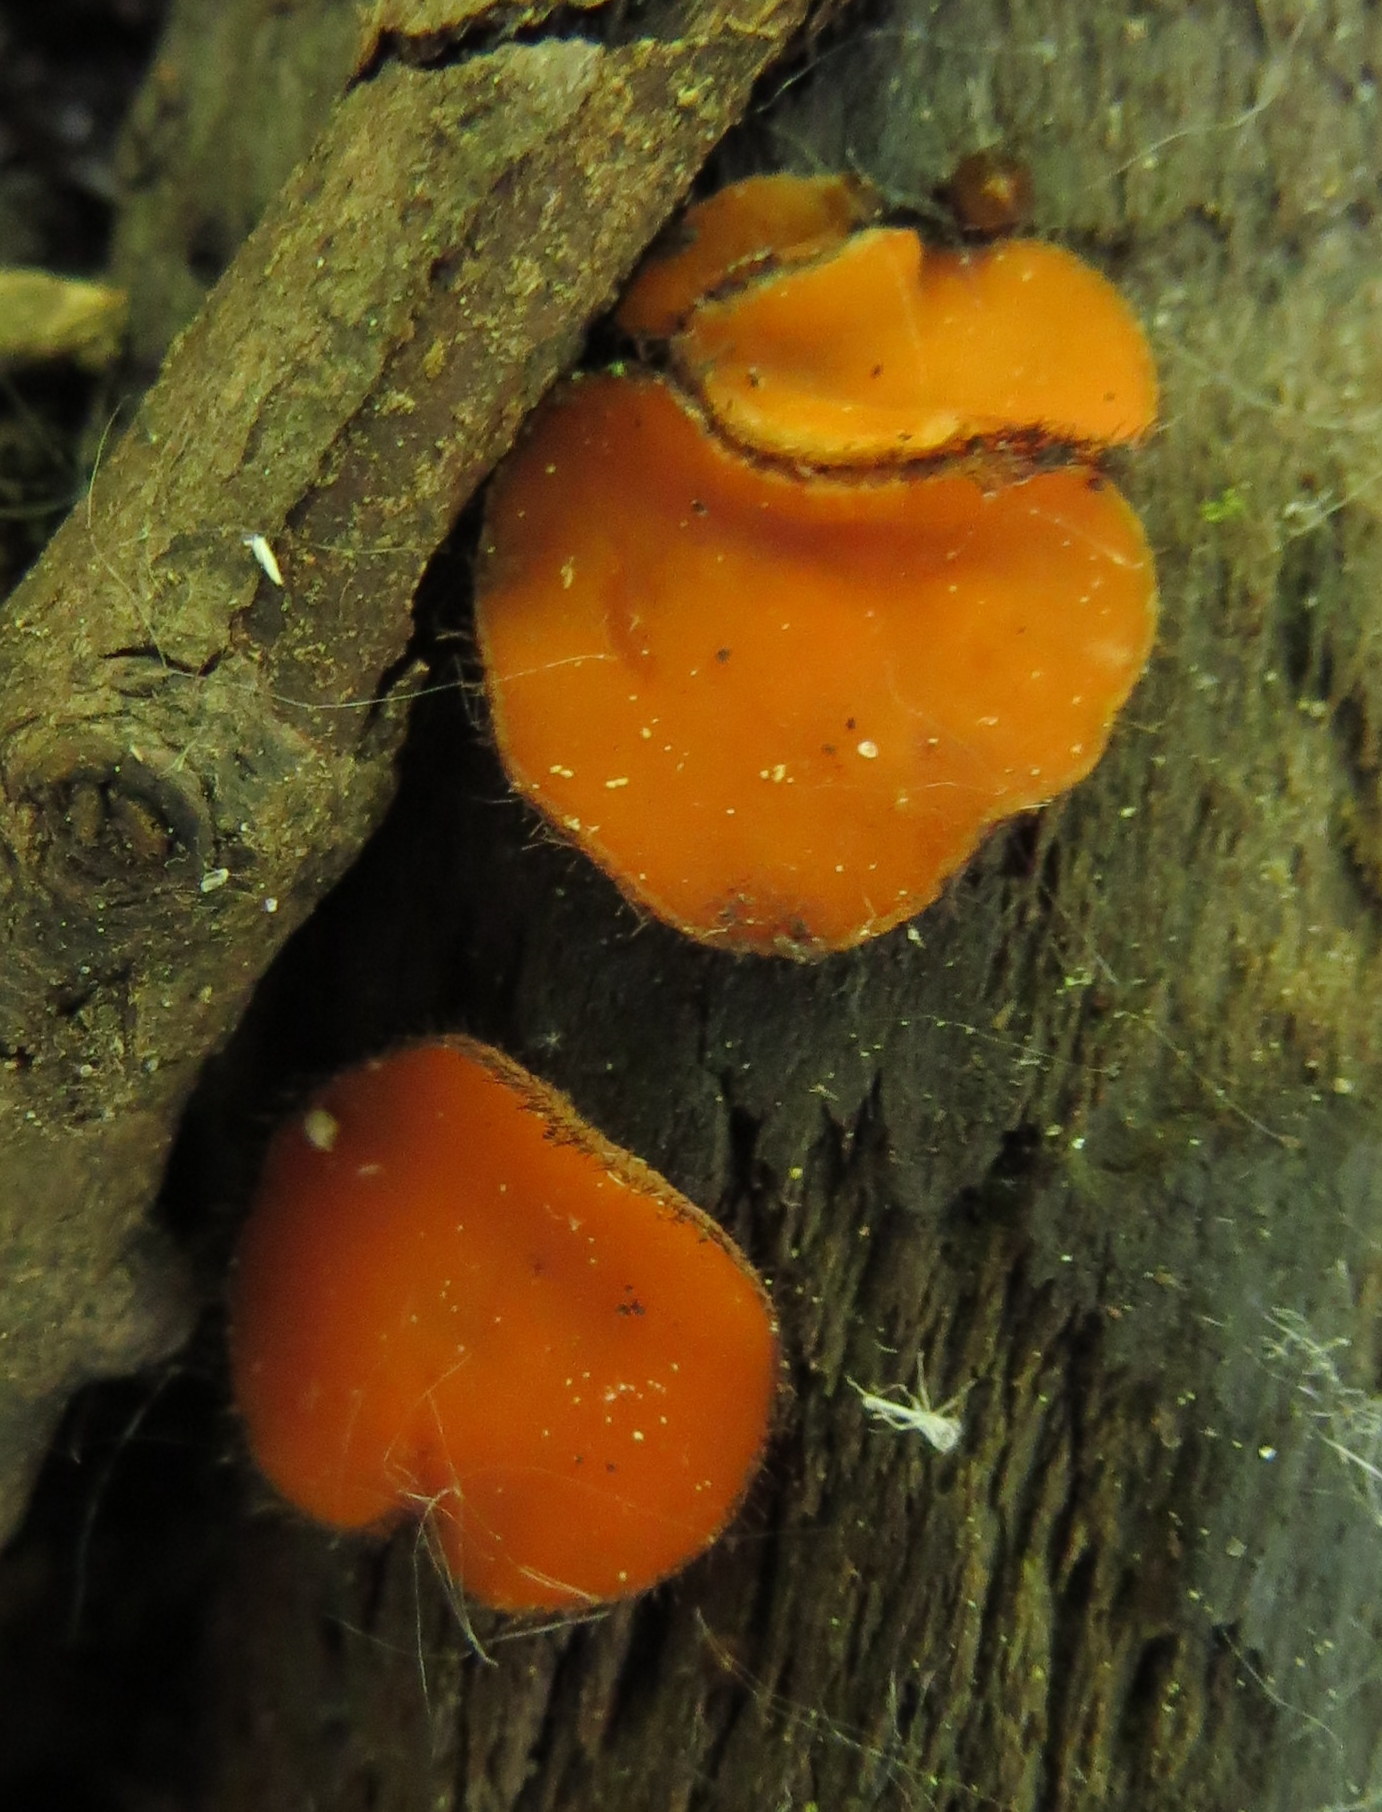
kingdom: Fungi
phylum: Ascomycota
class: Pezizomycetes
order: Pezizales
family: Pyronemataceae
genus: Scutellinia
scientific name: Scutellinia
